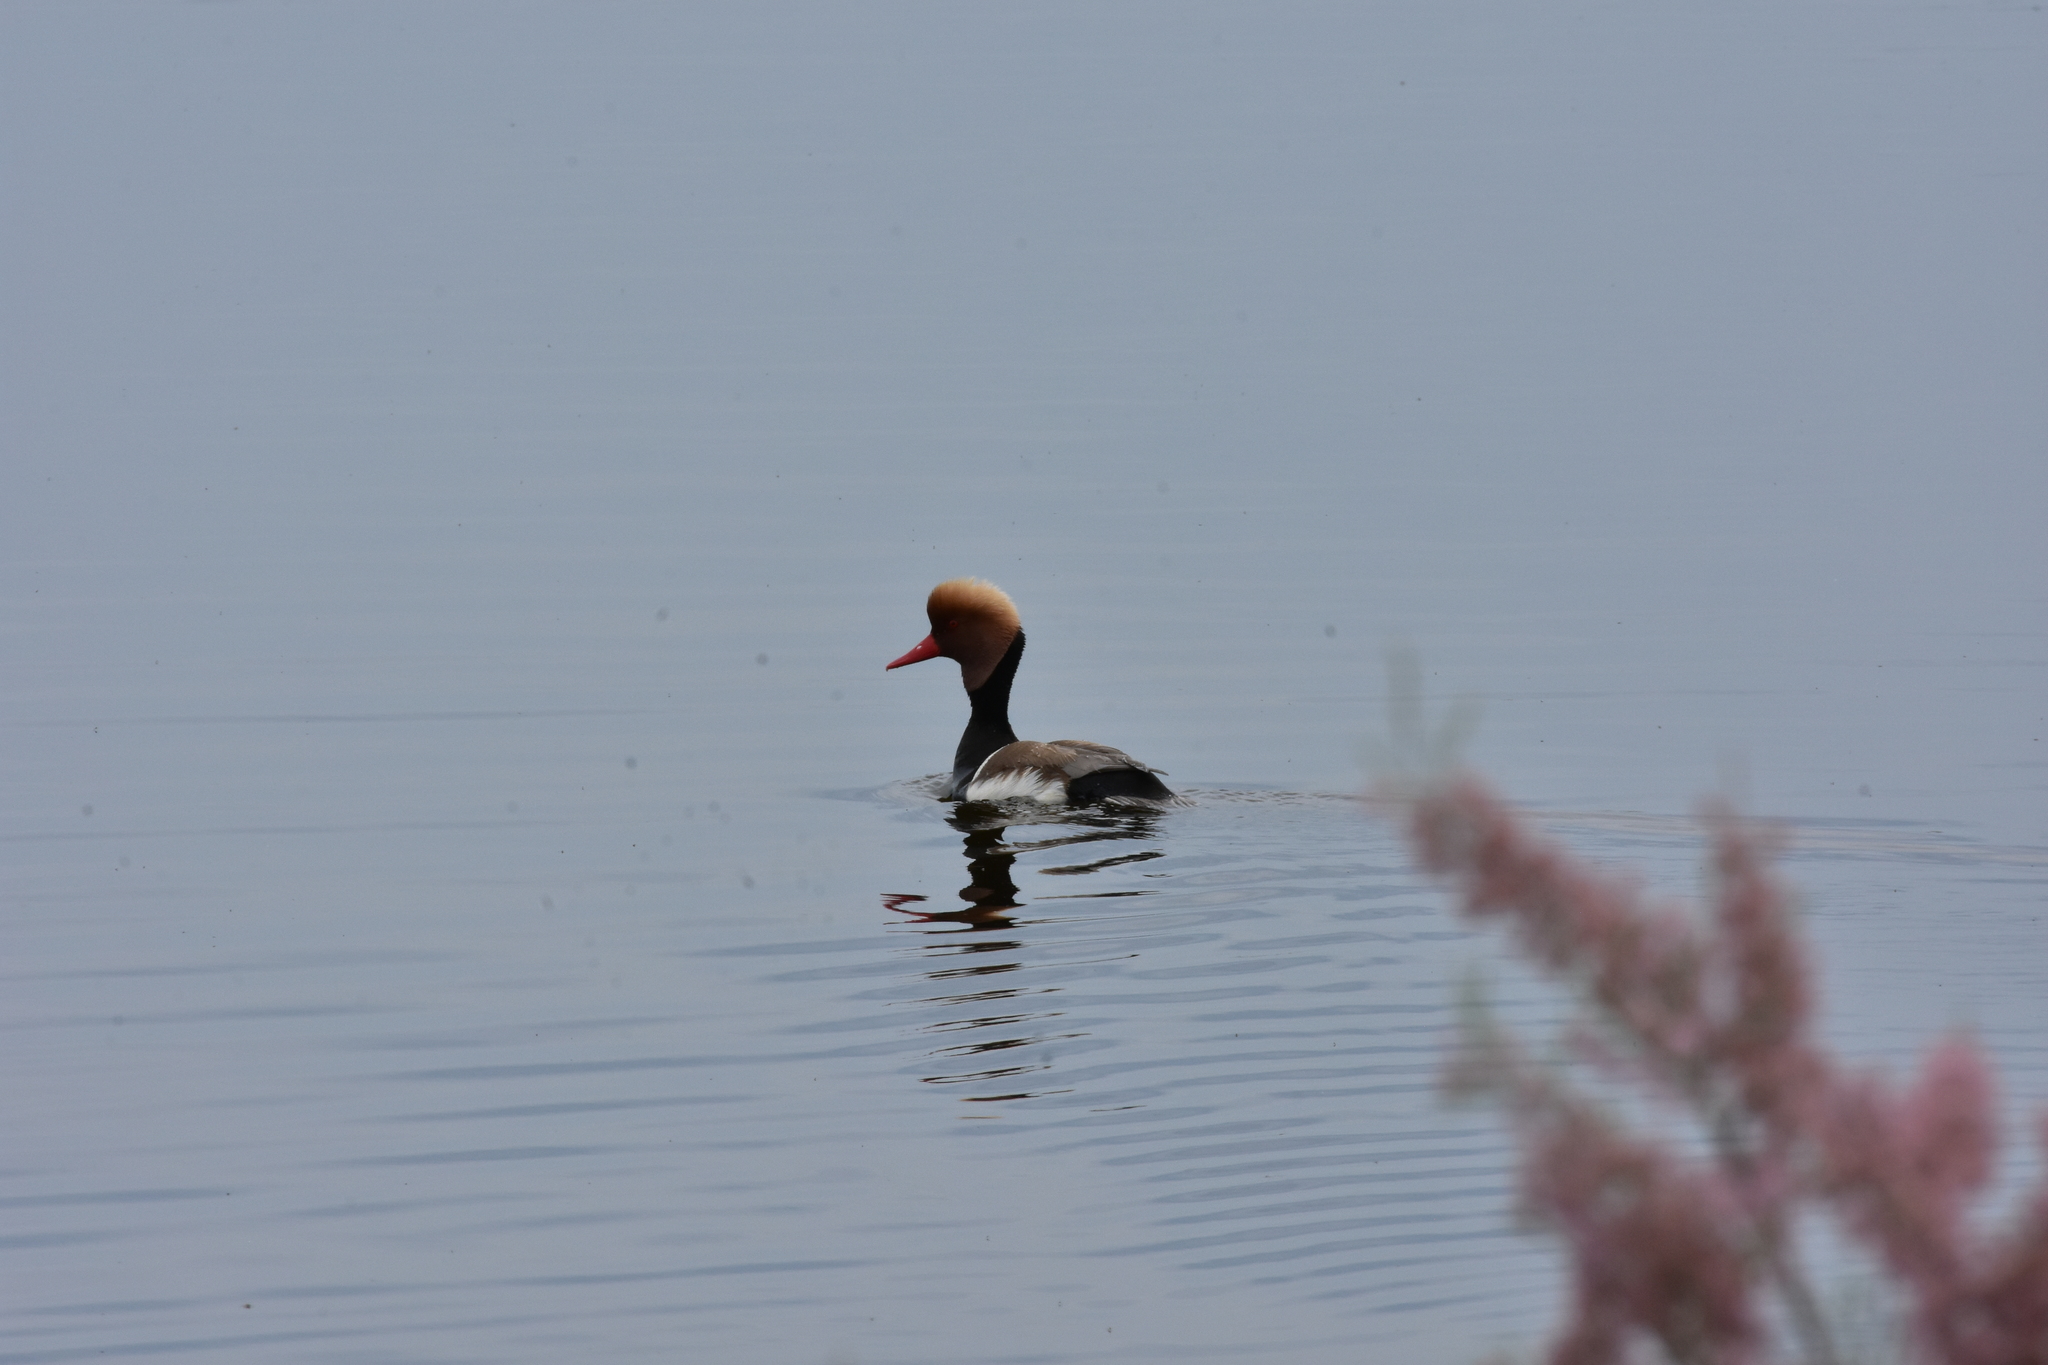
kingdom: Animalia
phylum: Chordata
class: Aves
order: Anseriformes
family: Anatidae
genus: Netta
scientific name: Netta rufina
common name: Red-crested pochard
